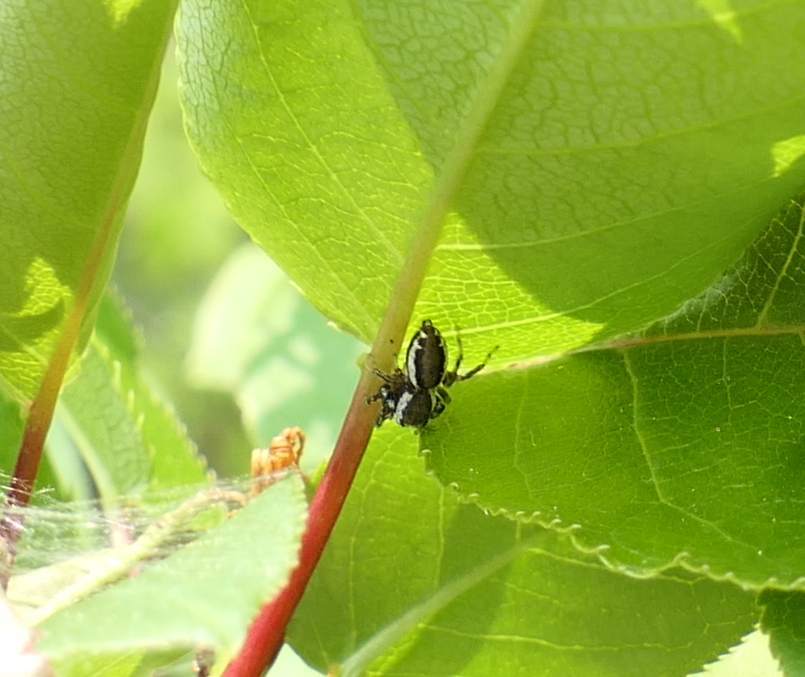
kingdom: Animalia
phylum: Arthropoda
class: Arachnida
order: Araneae
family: Salticidae
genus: Pelegrina
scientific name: Pelegrina proterva
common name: Common white-cheeked jumping spider
